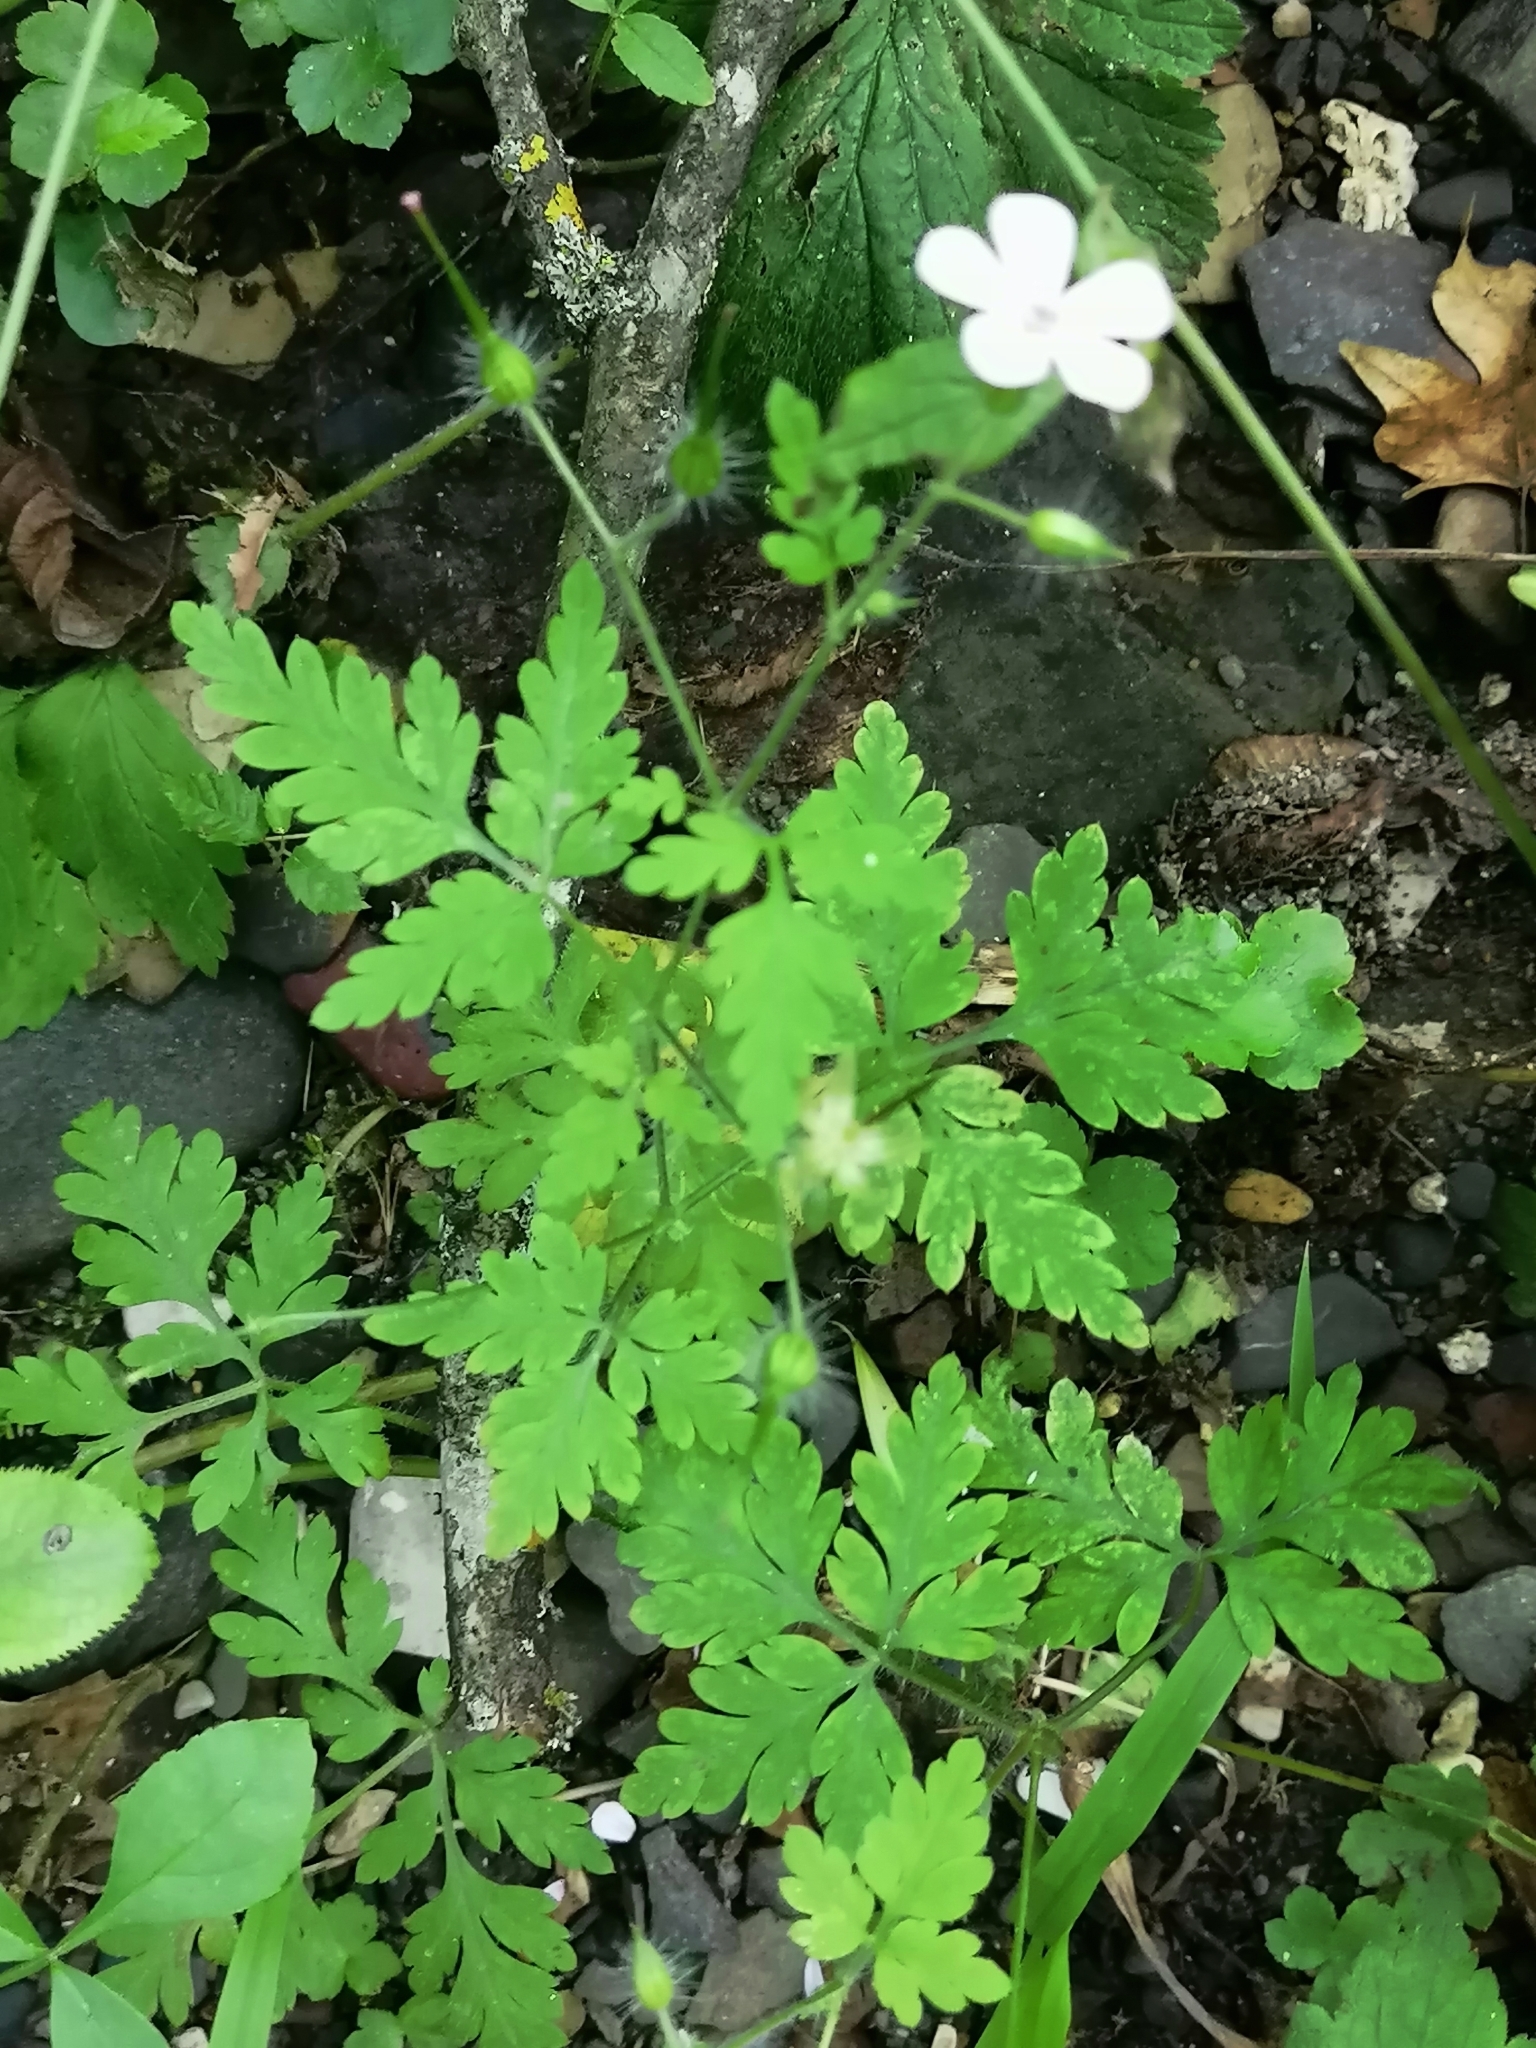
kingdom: Plantae
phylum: Tracheophyta
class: Magnoliopsida
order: Geraniales
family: Geraniaceae
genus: Geranium
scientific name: Geranium robertianum
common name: Herb-robert
